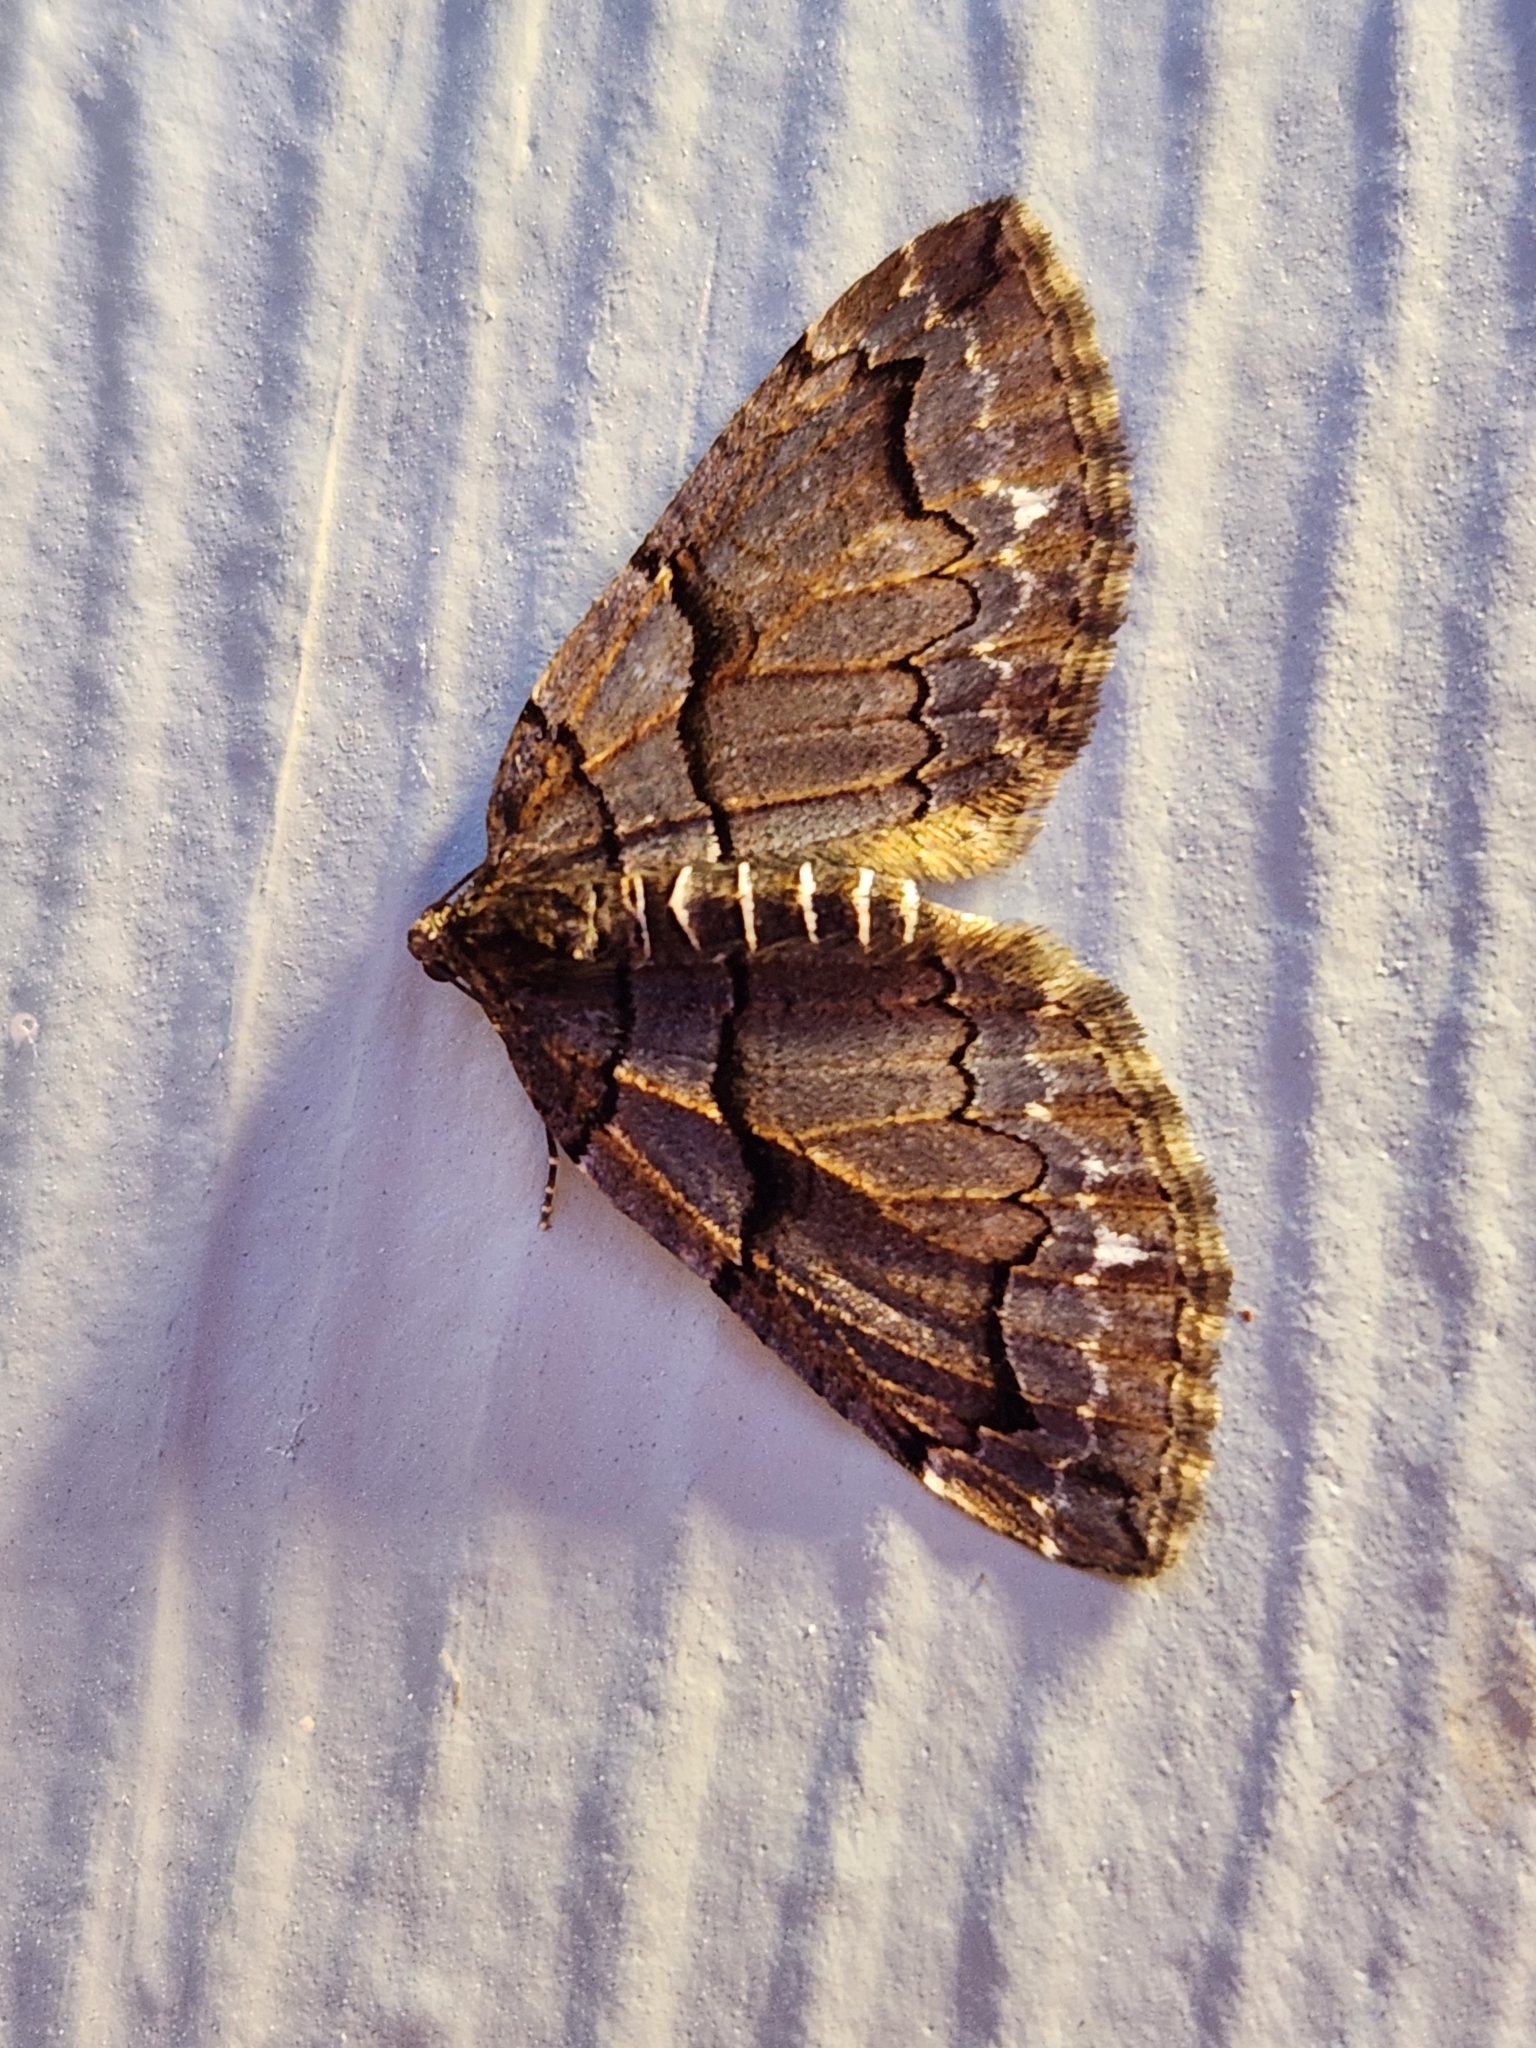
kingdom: Animalia
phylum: Arthropoda
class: Insecta
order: Lepidoptera
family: Geometridae
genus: Anticlea
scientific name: Anticlea vasiliata
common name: Variable carpet
